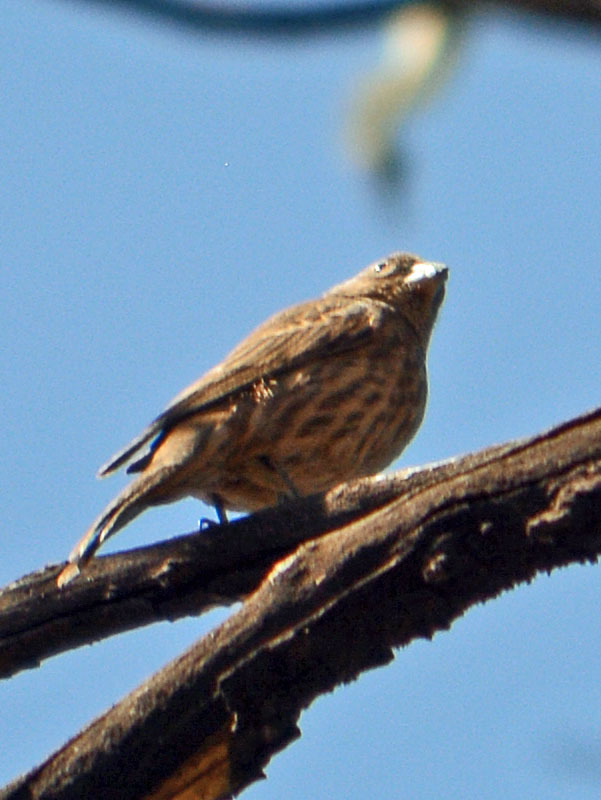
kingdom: Animalia
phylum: Chordata
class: Aves
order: Passeriformes
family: Fringillidae
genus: Haemorhous
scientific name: Haemorhous mexicanus
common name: House finch
